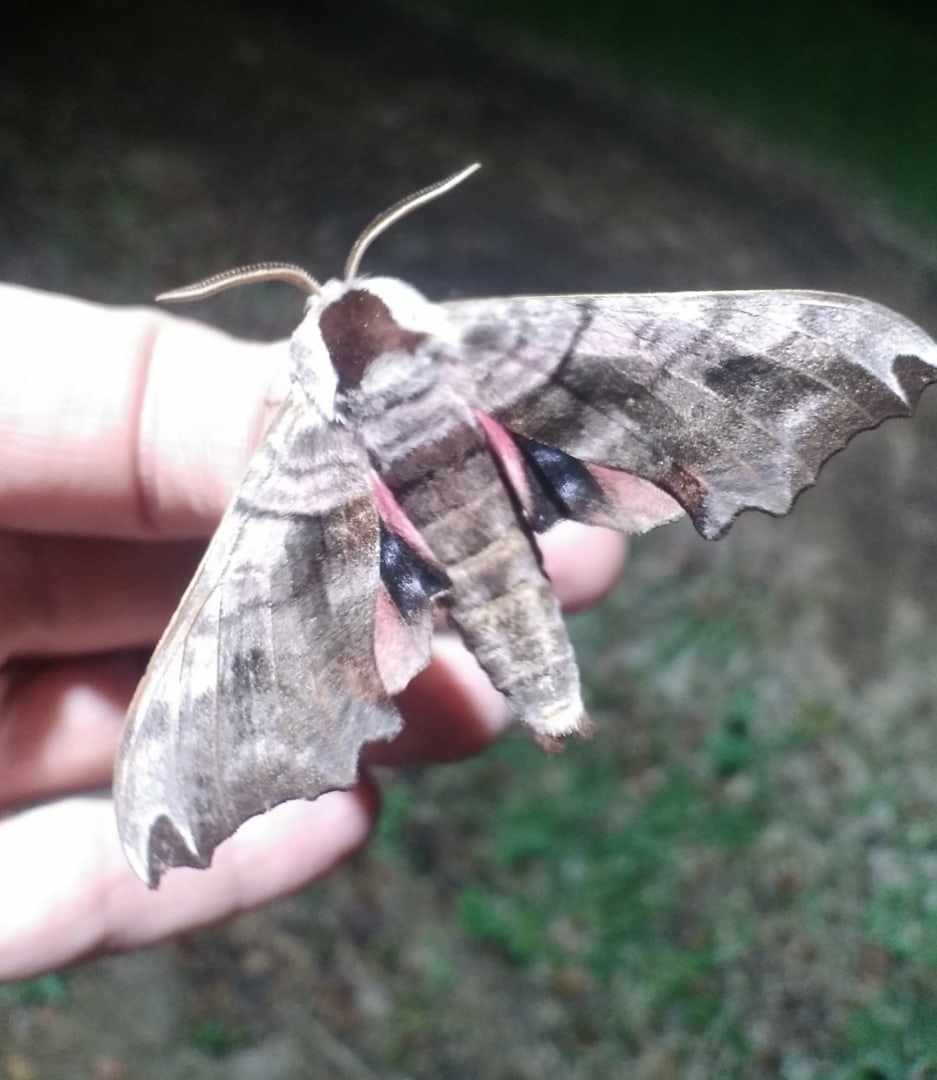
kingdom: Animalia
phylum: Arthropoda
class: Insecta
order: Lepidoptera
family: Sphingidae
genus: Smerinthus
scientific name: Smerinthus caecus
